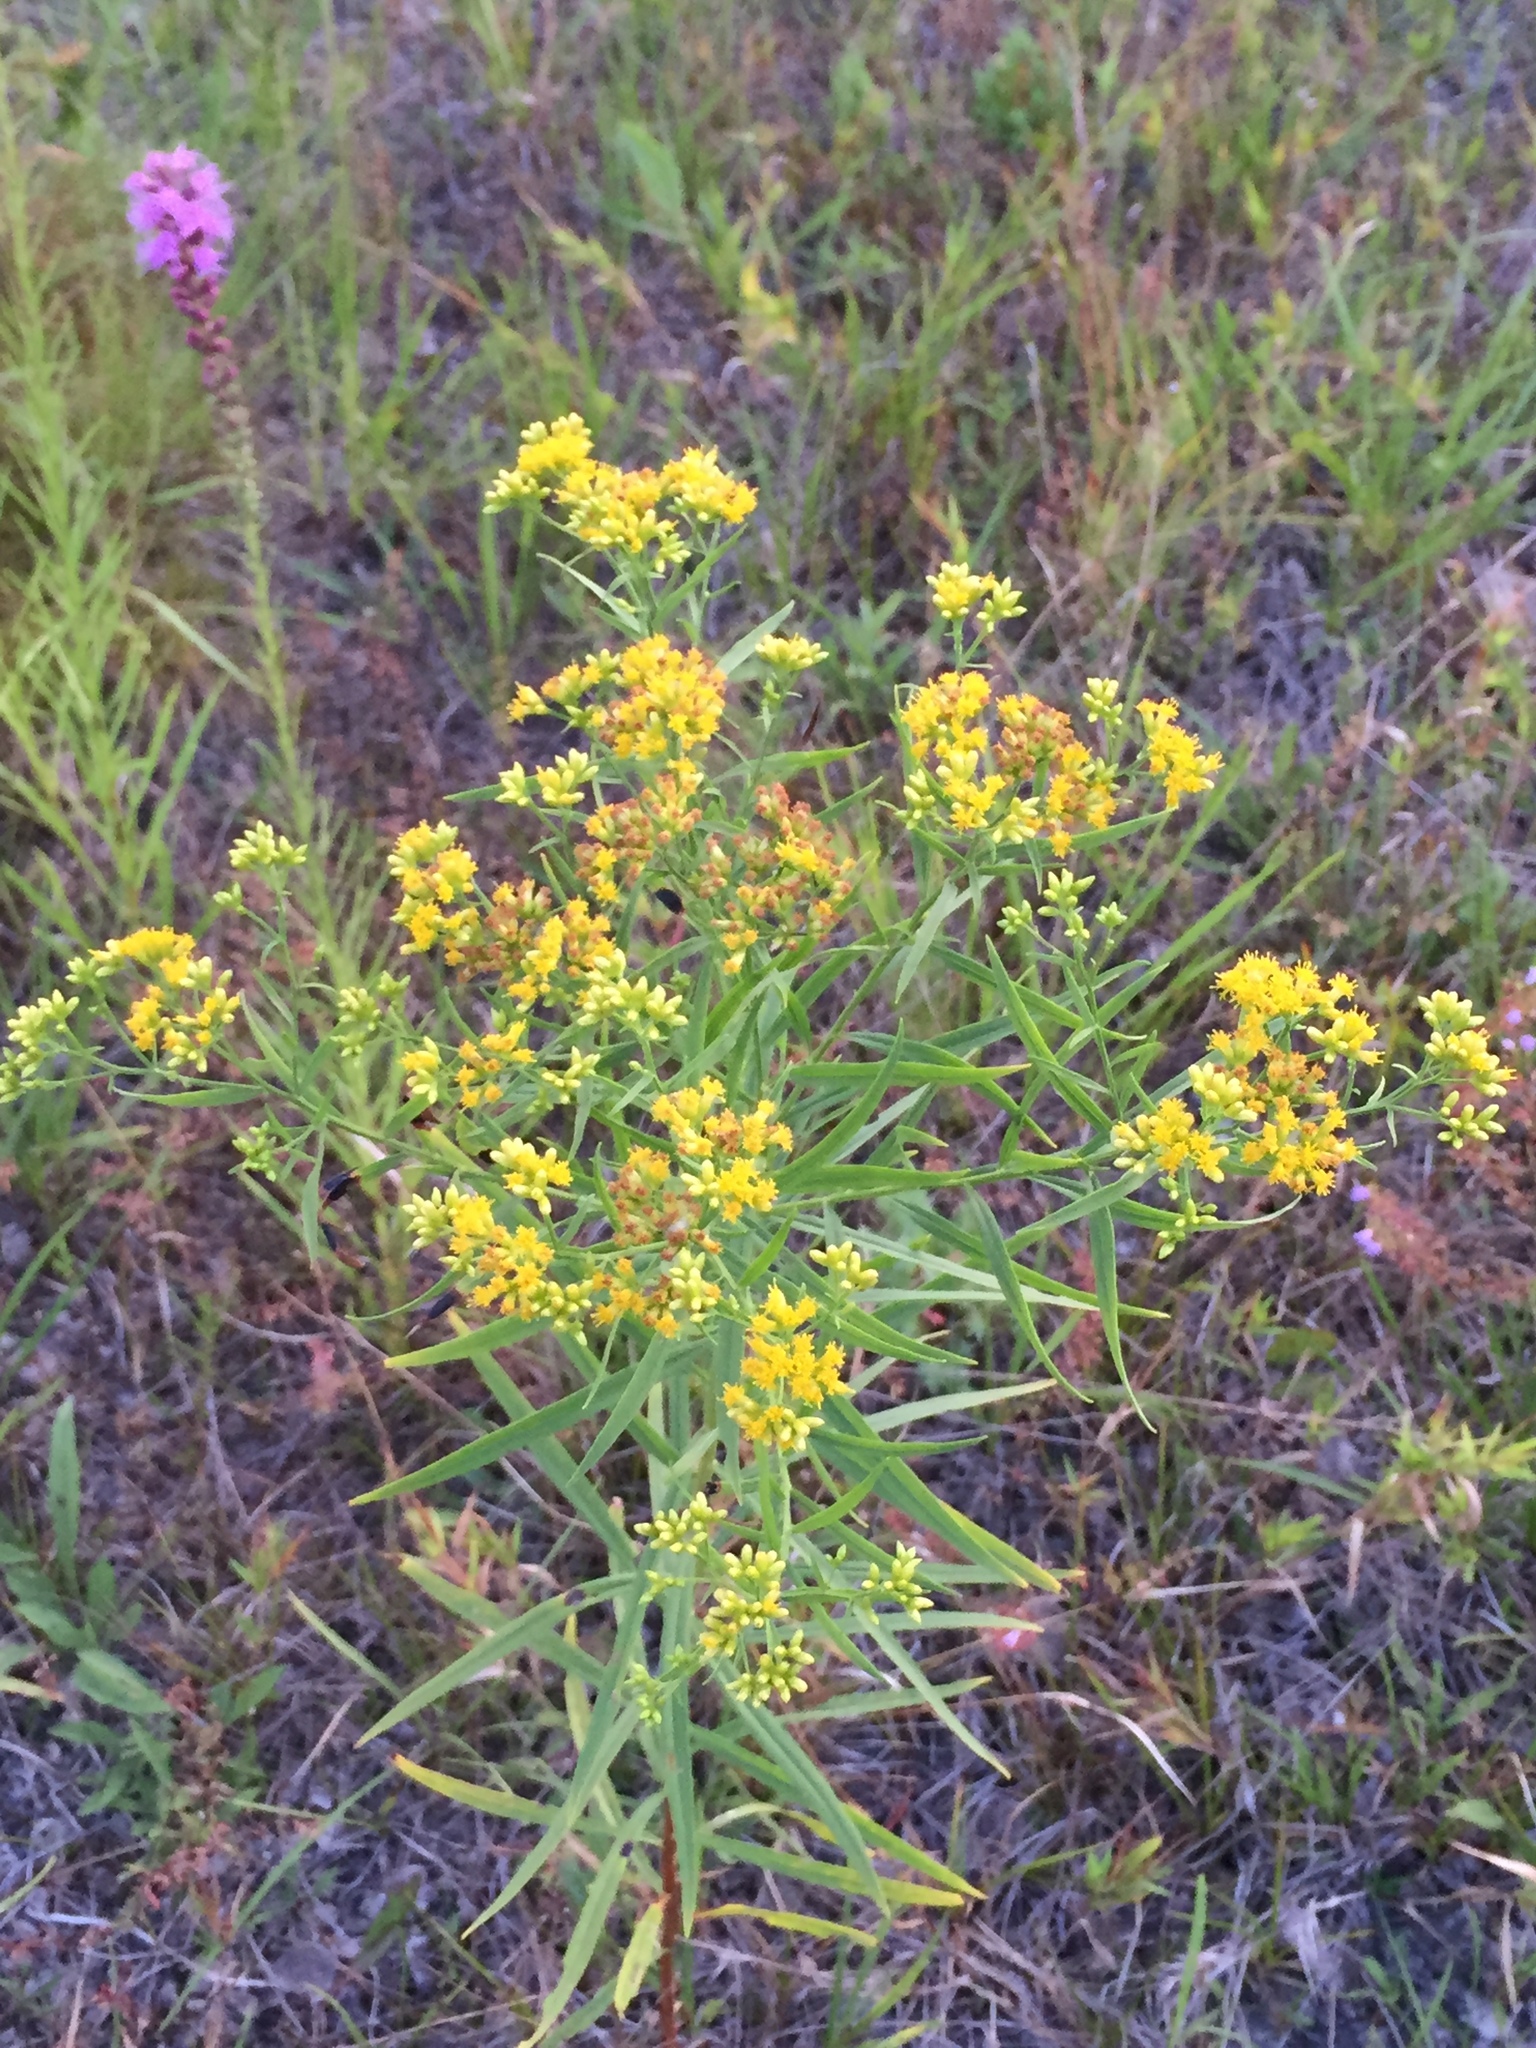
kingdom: Plantae
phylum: Tracheophyta
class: Magnoliopsida
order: Asterales
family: Asteraceae
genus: Euthamia
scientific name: Euthamia graminifolia
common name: Common goldentop
